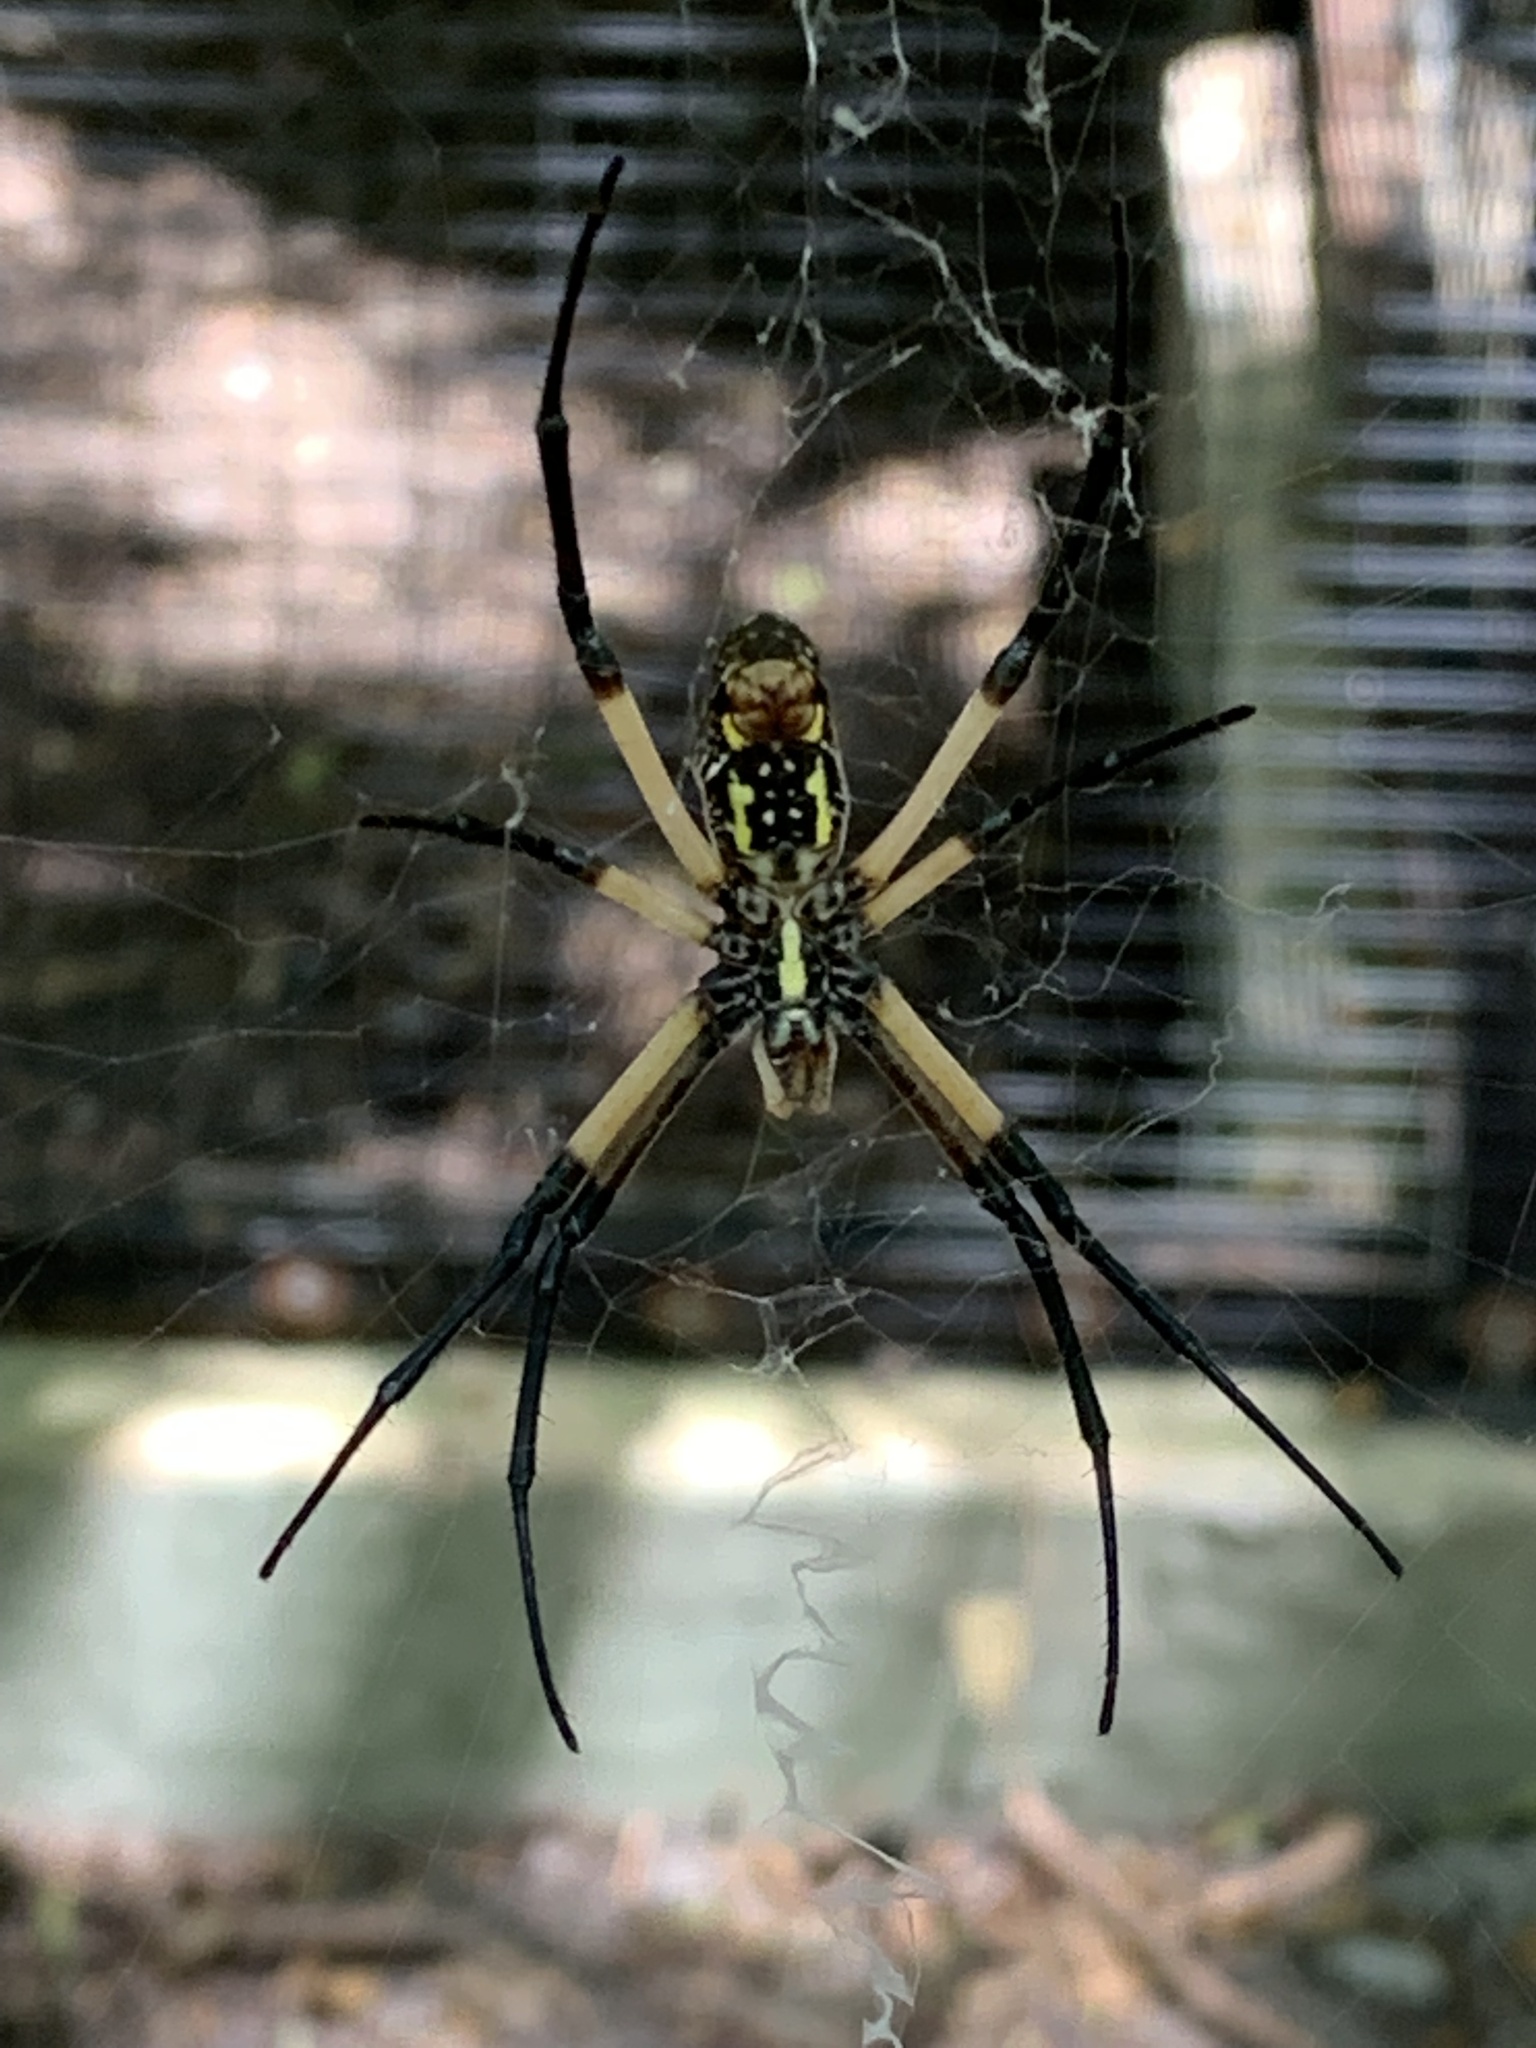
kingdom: Animalia
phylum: Arthropoda
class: Arachnida
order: Araneae
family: Araneidae
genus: Argiope
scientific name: Argiope aurantia
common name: Orb weavers
